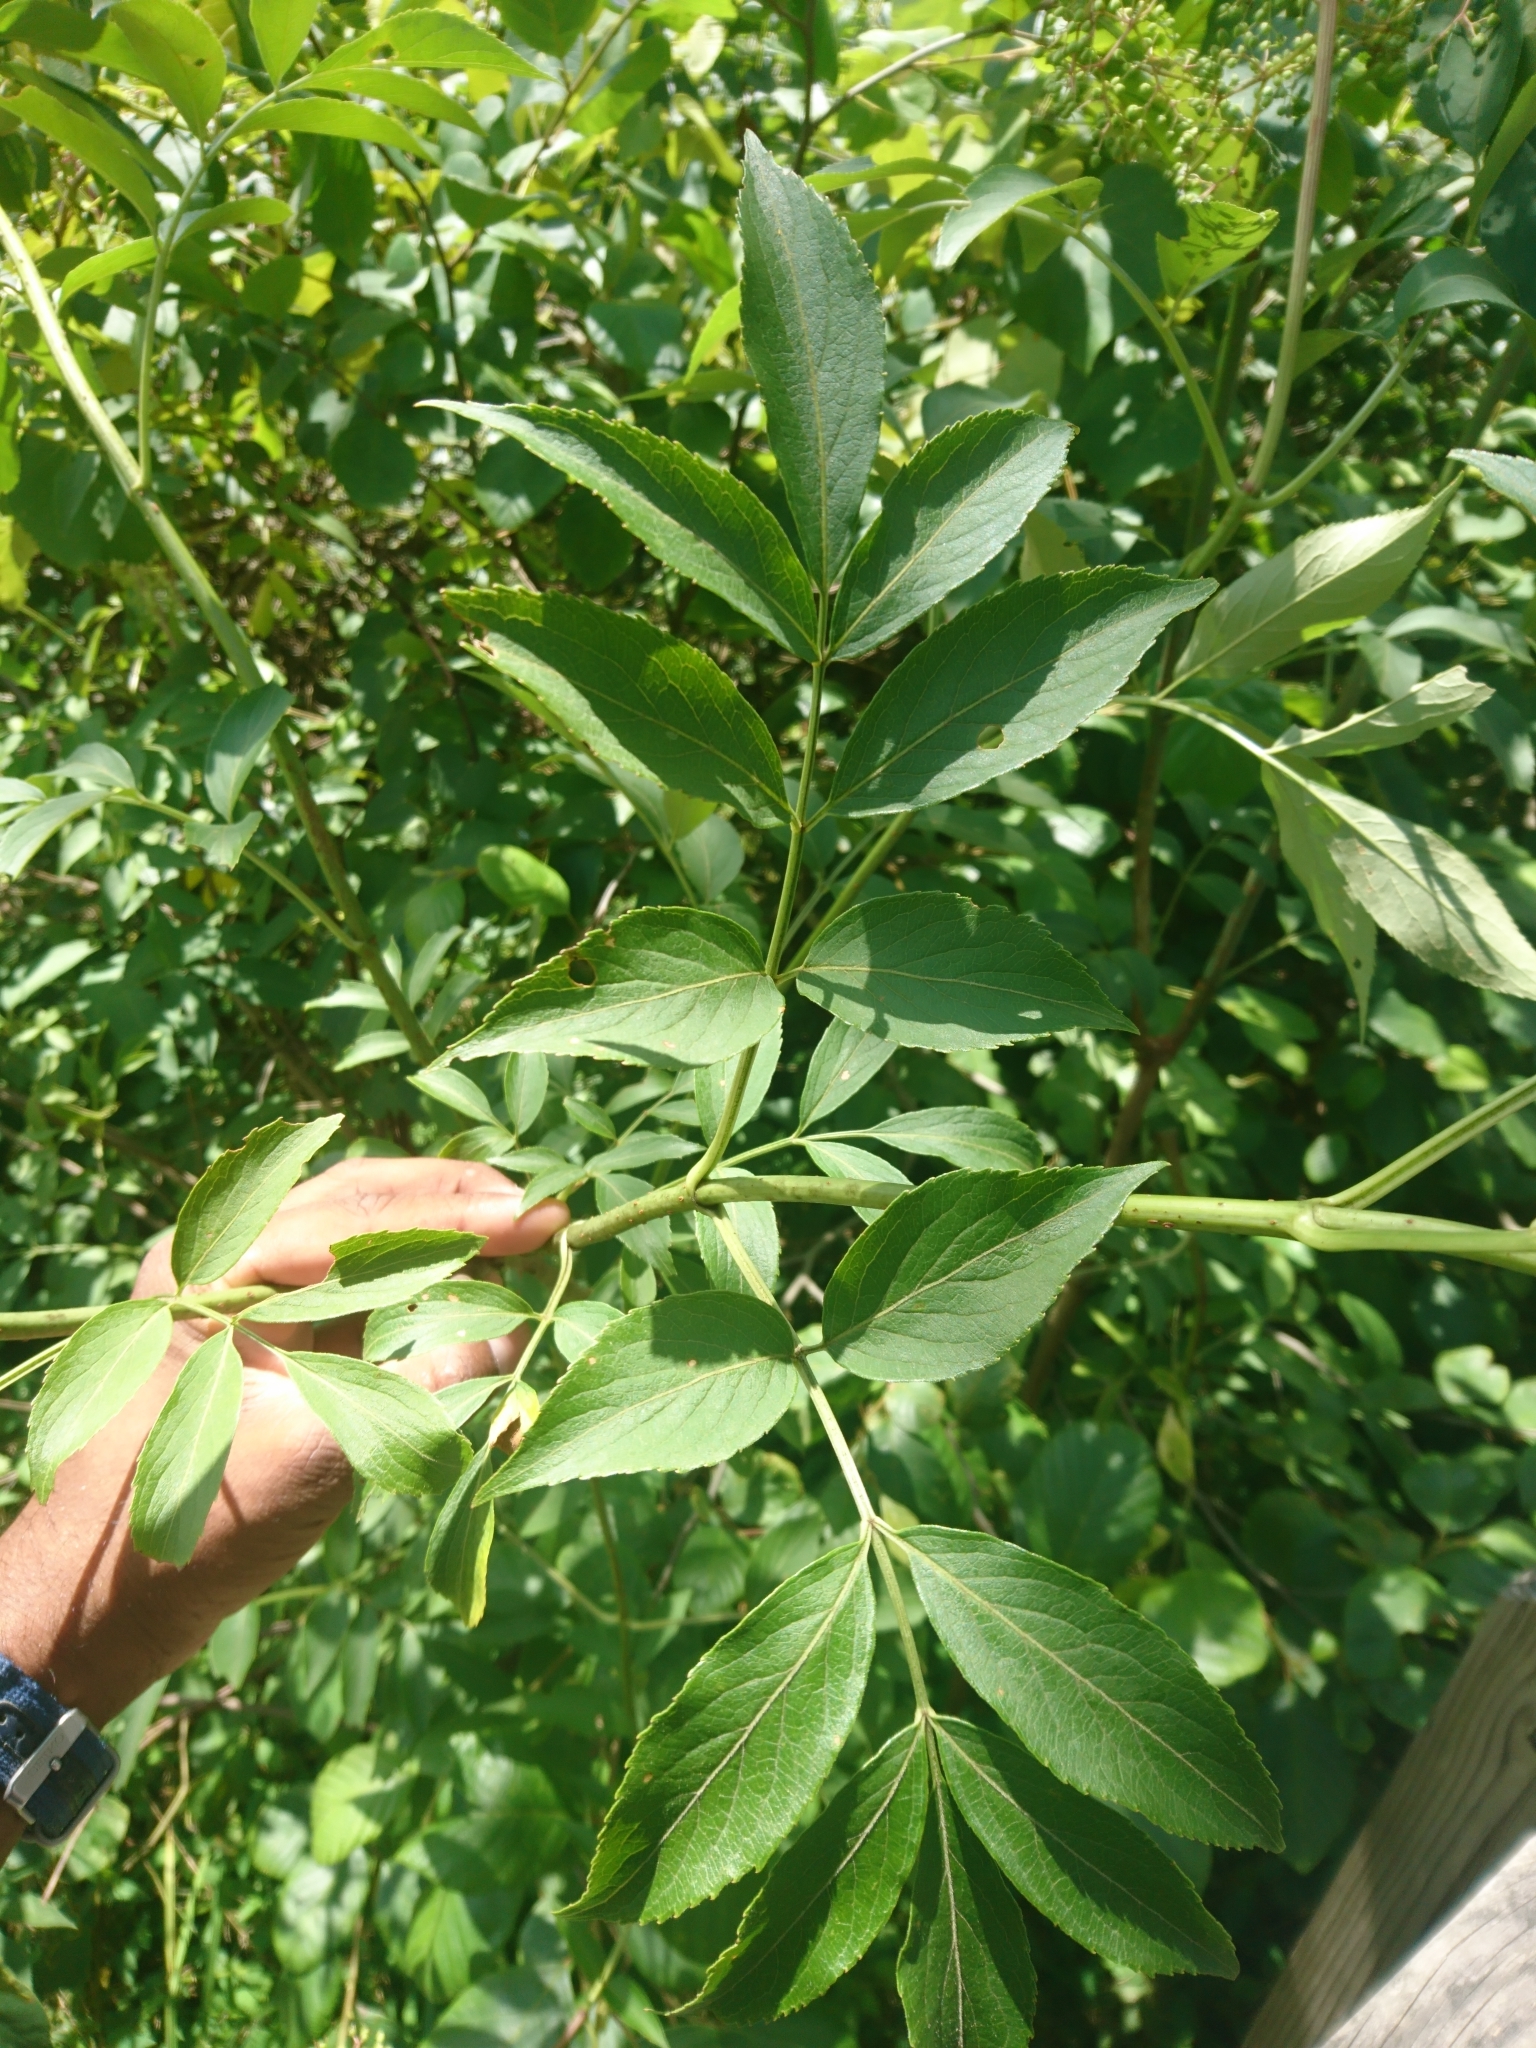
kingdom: Plantae
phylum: Tracheophyta
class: Magnoliopsida
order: Dipsacales
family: Viburnaceae
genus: Sambucus
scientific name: Sambucus canadensis
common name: American elder
